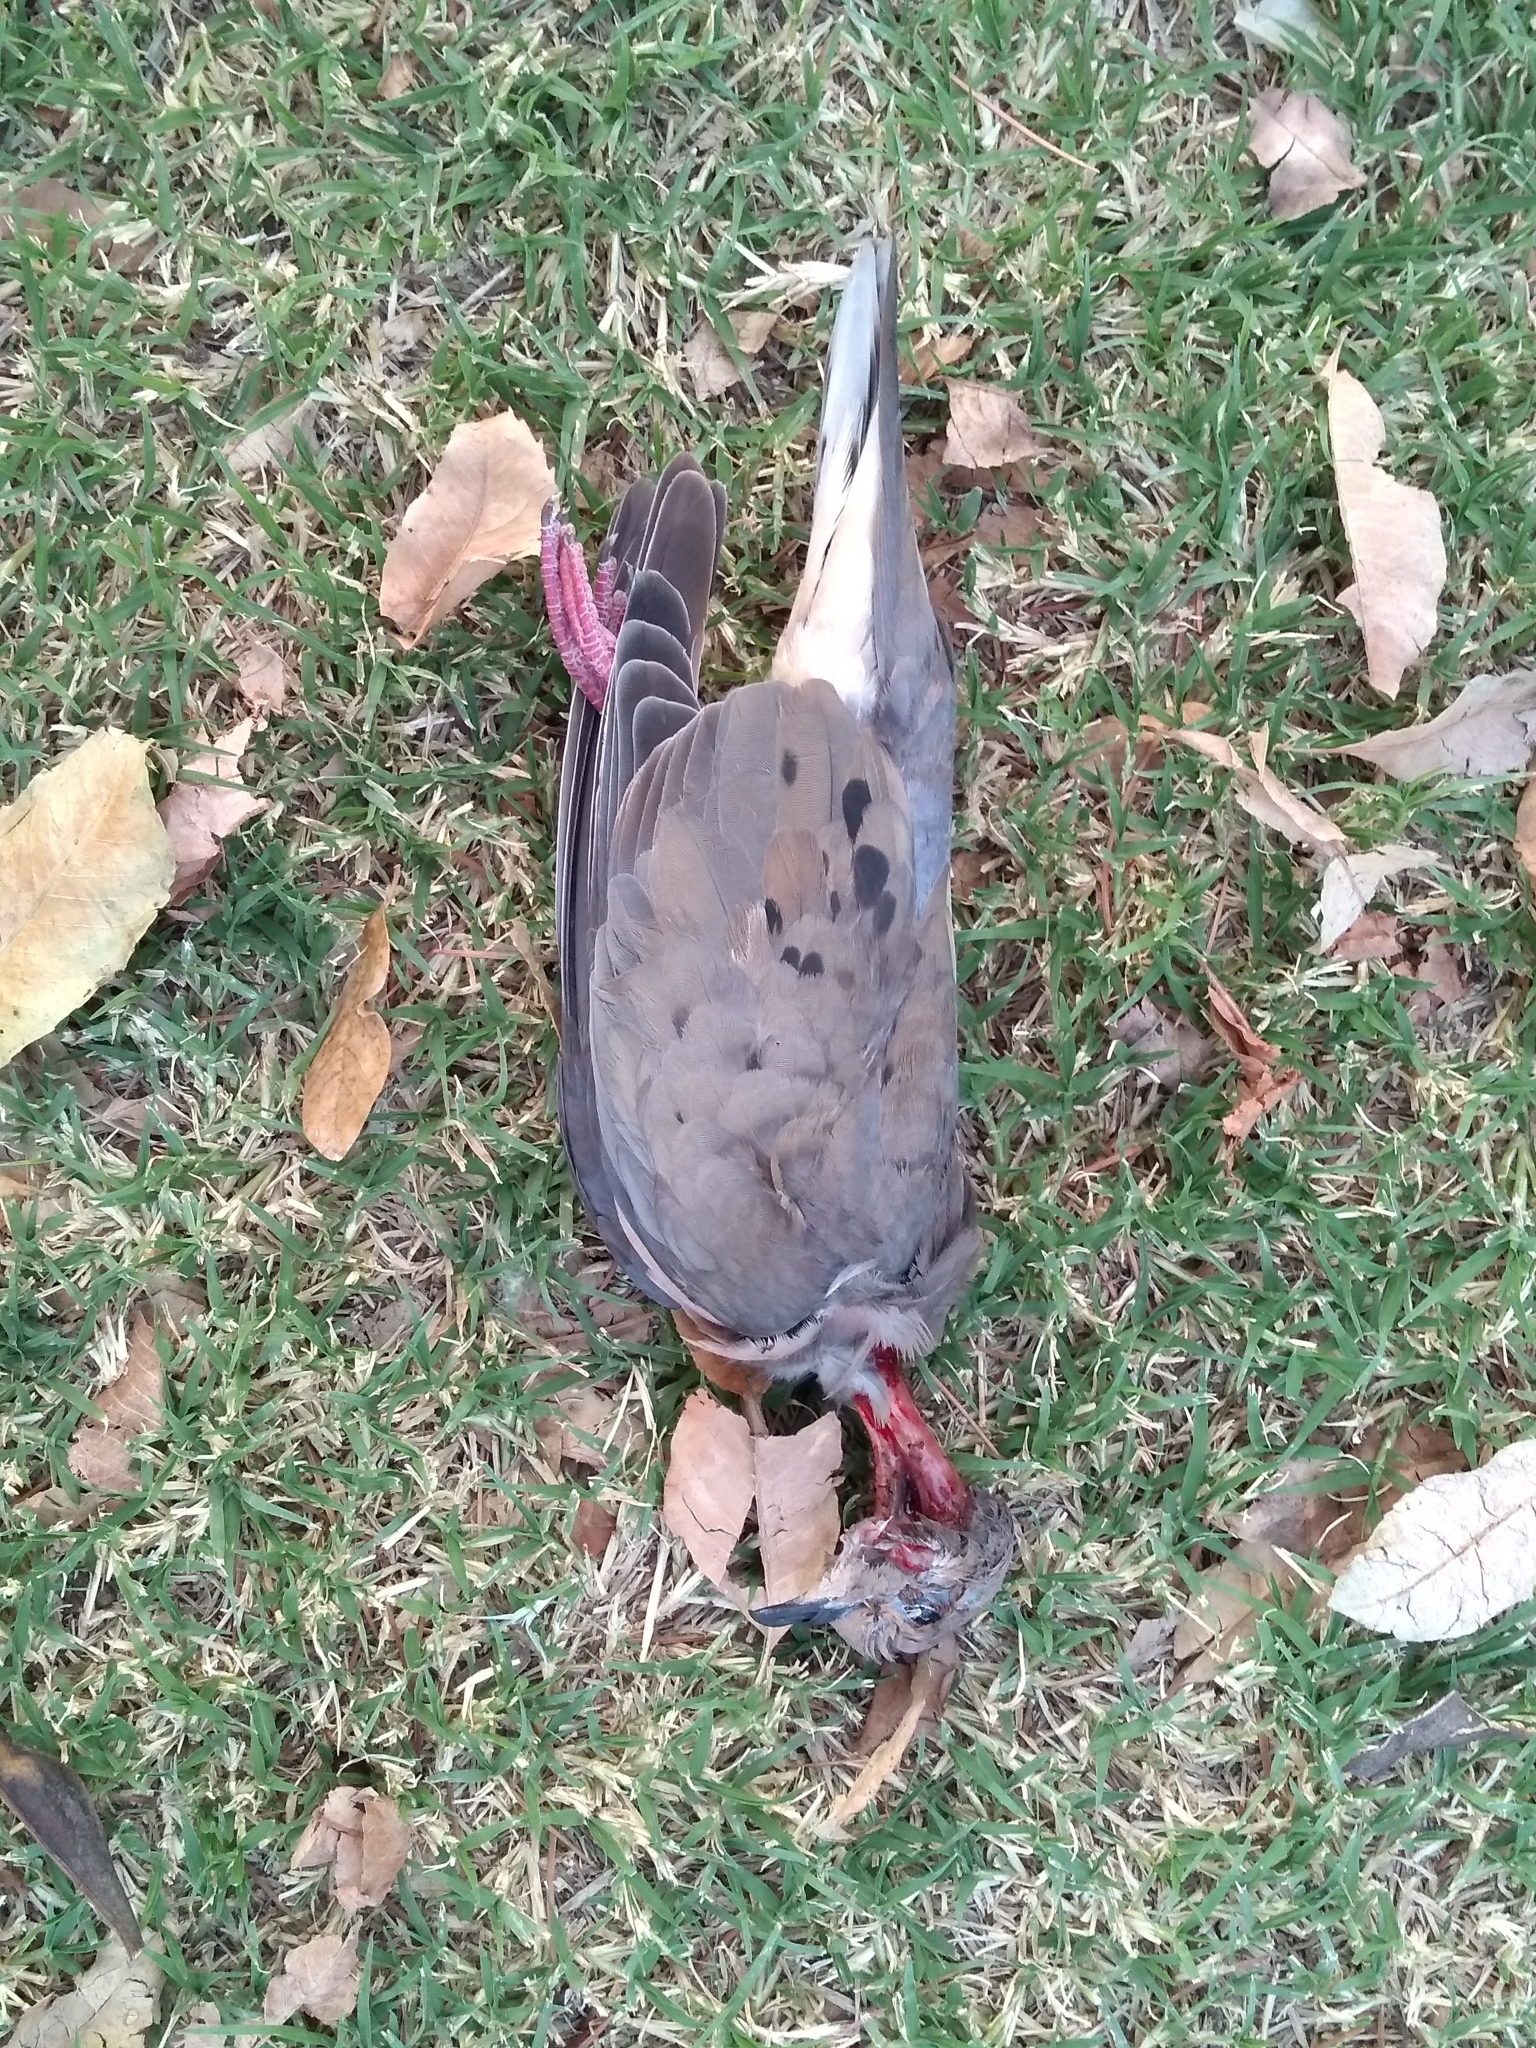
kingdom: Animalia
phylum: Chordata
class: Aves
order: Columbiformes
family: Columbidae
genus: Zenaida
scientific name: Zenaida auriculata
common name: Eared dove
